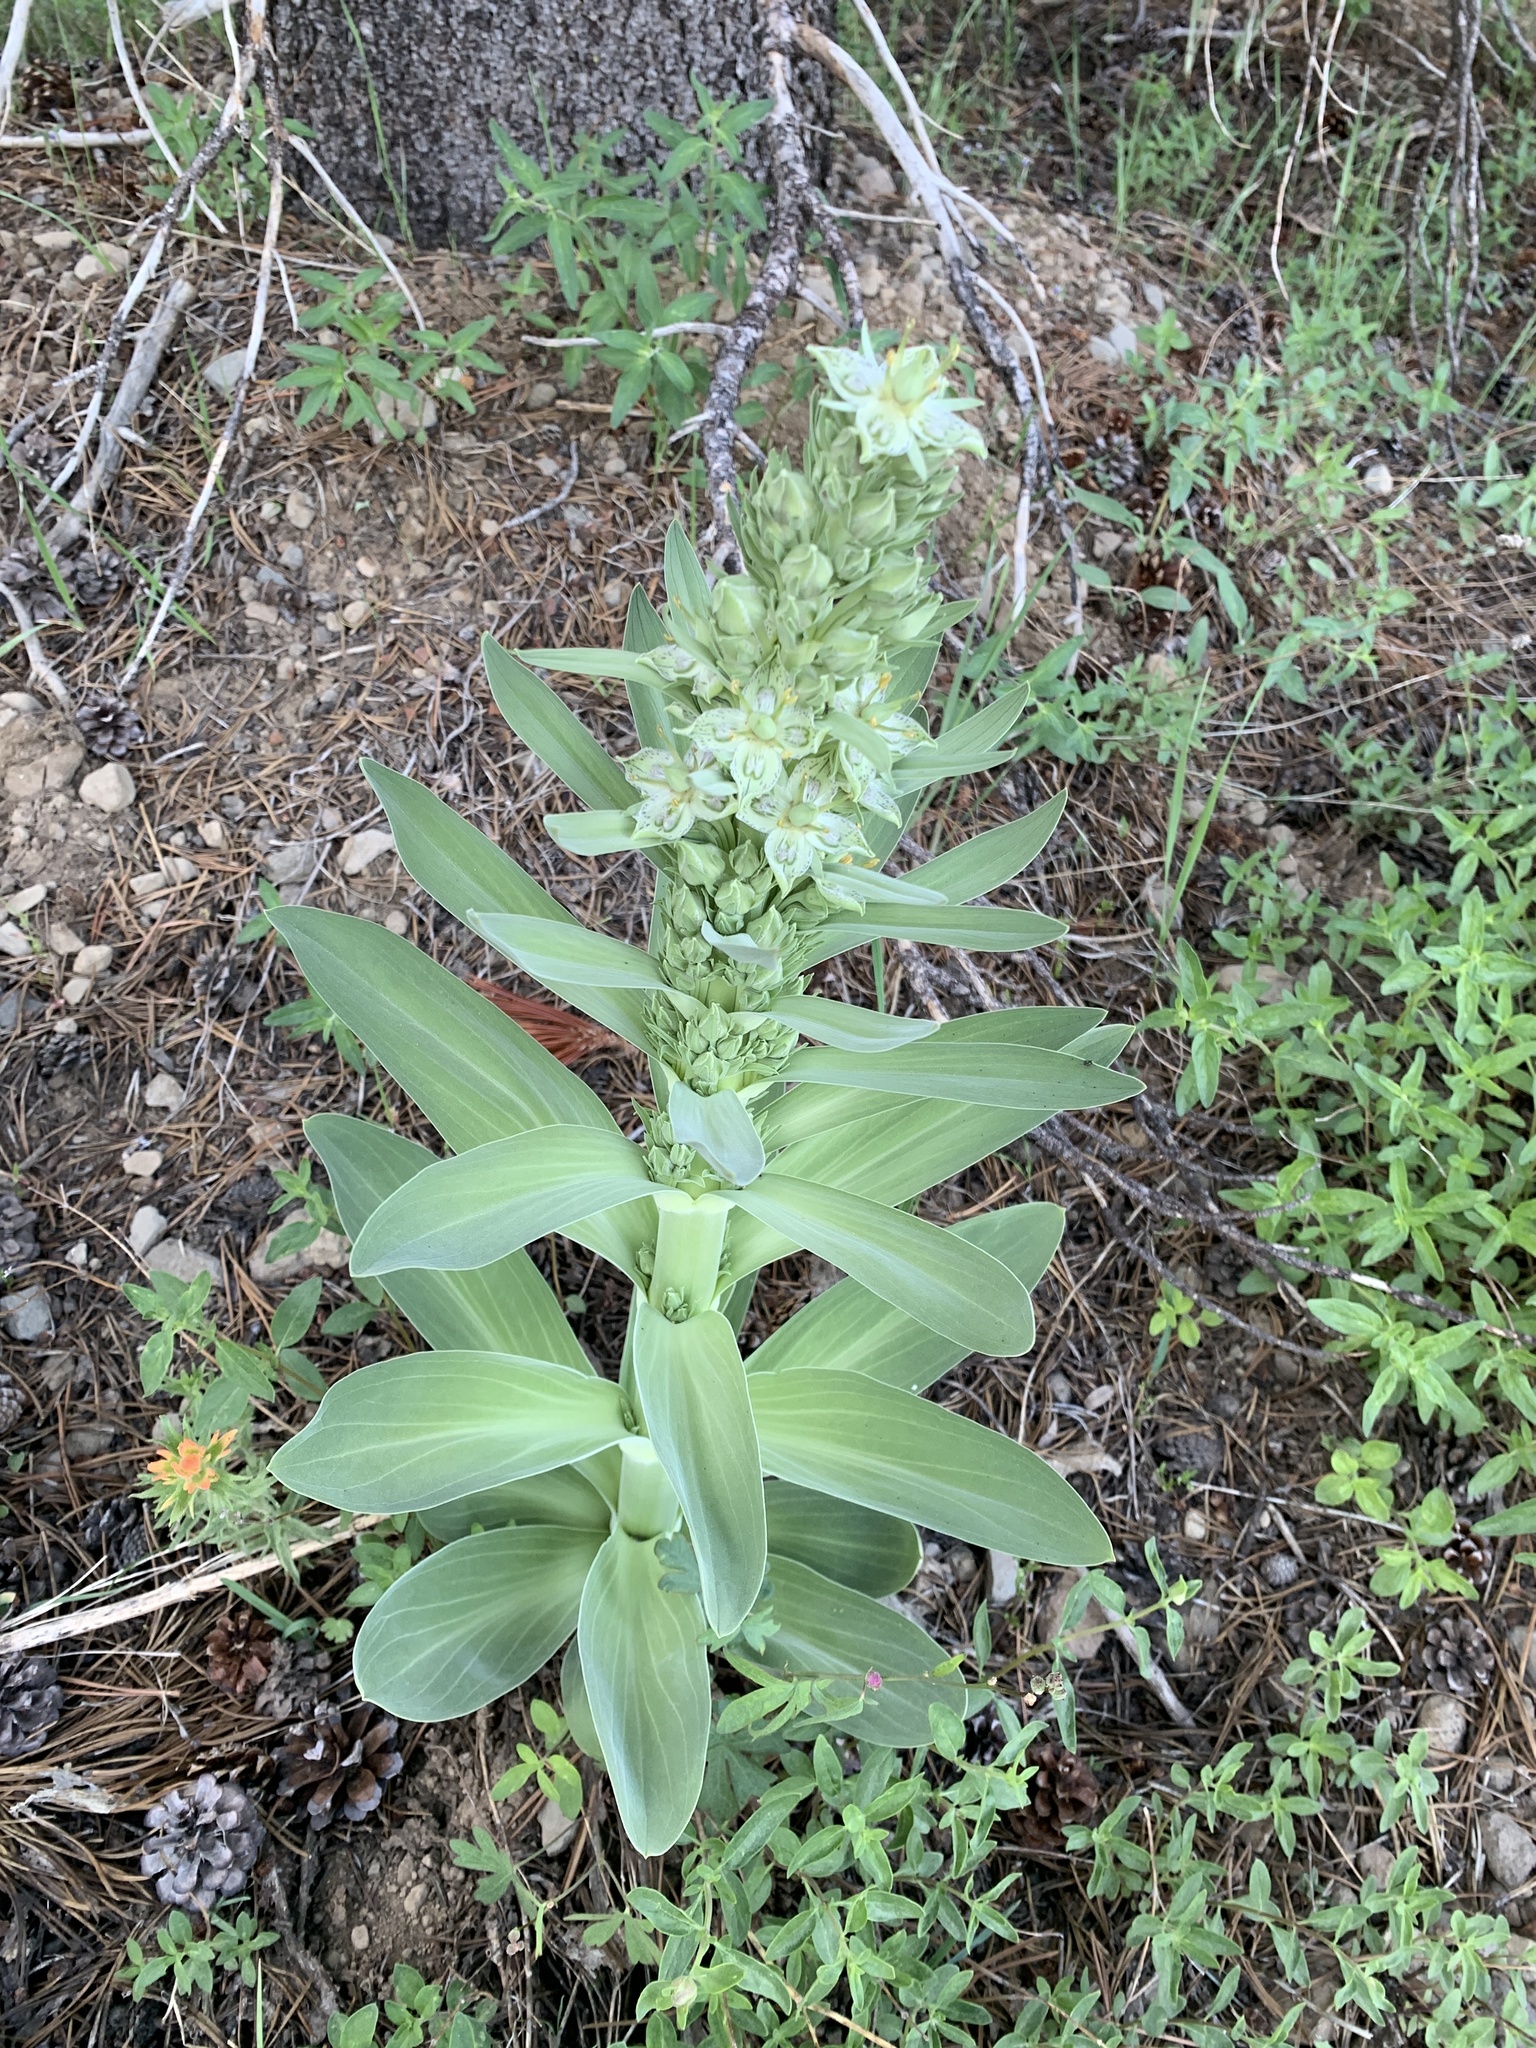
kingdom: Plantae
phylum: Tracheophyta
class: Magnoliopsida
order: Gentianales
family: Gentianaceae
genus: Frasera
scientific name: Frasera speciosa
